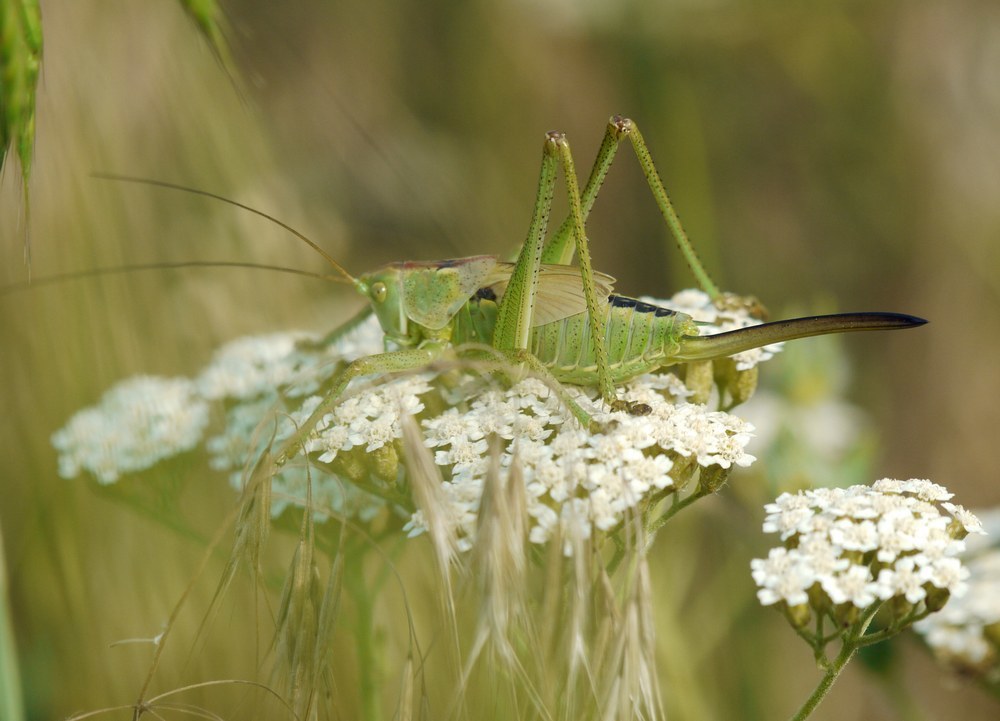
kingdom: Animalia
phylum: Arthropoda
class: Insecta
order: Orthoptera
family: Tettigoniidae
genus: Tettigonia
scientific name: Tettigonia viridissima
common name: Great green bush-cricket
